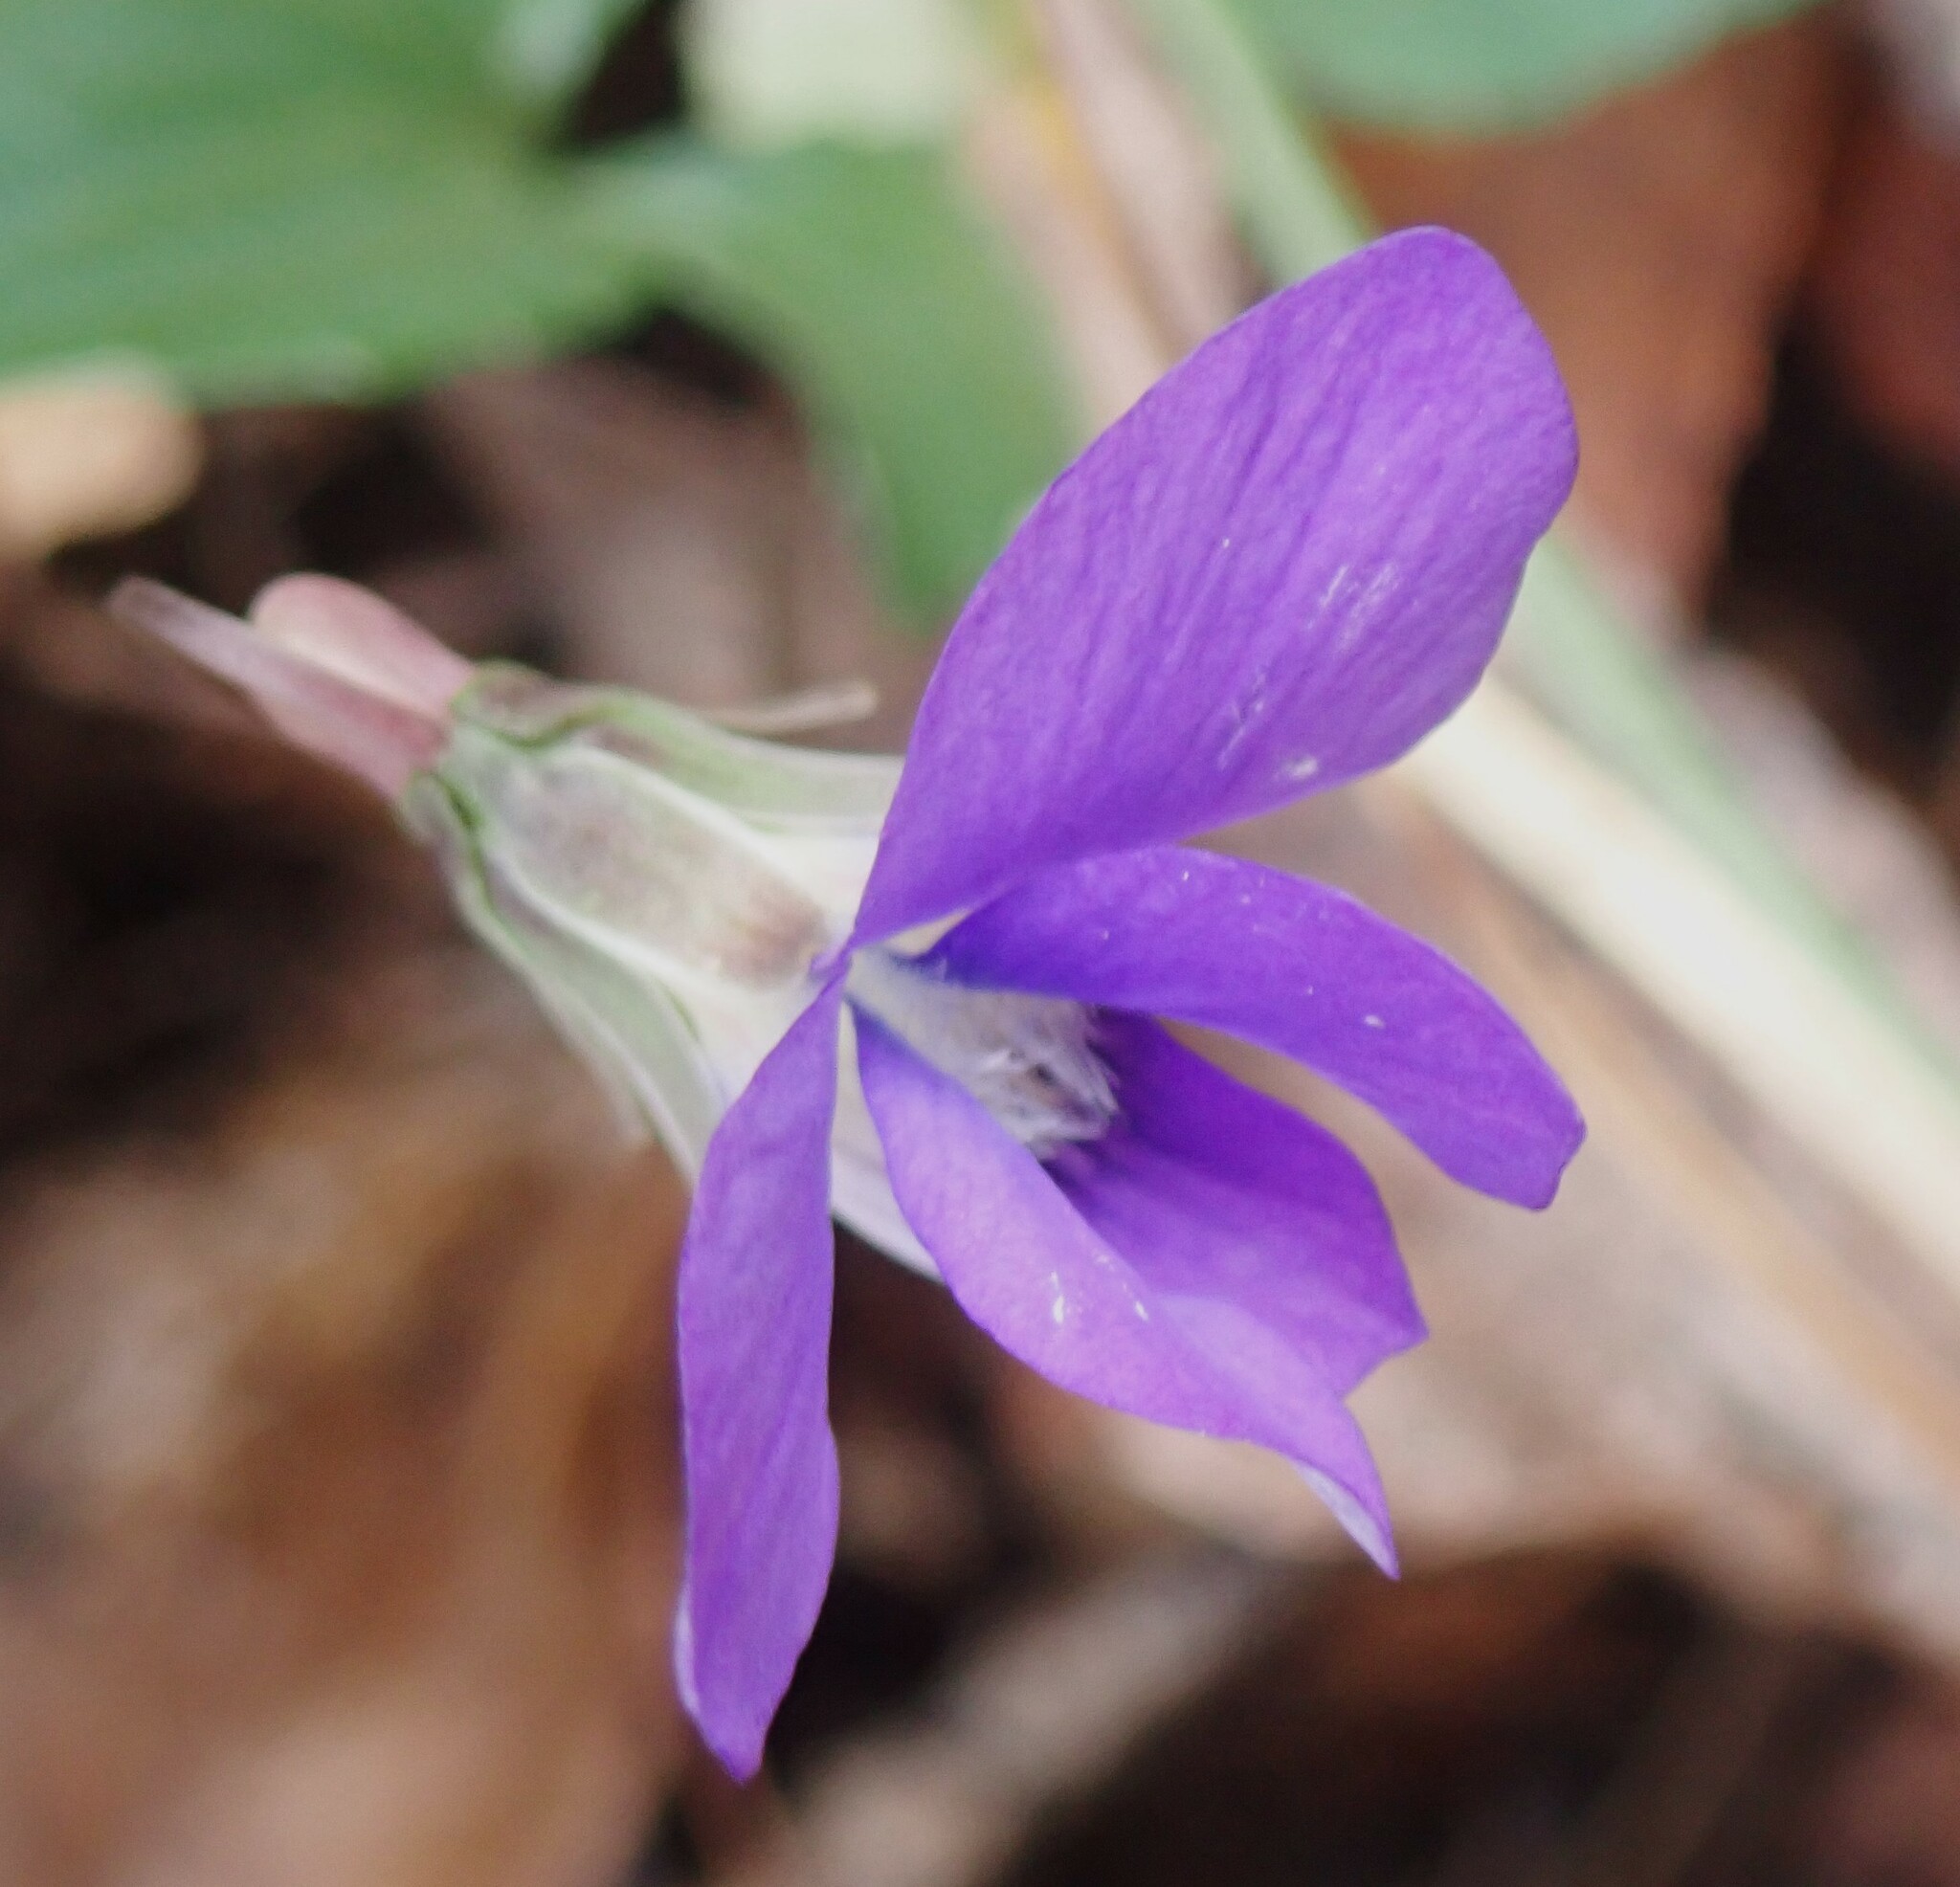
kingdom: Plantae
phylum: Tracheophyta
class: Magnoliopsida
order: Malpighiales
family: Violaceae
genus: Viola
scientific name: Viola palmata
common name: Early blue violet
